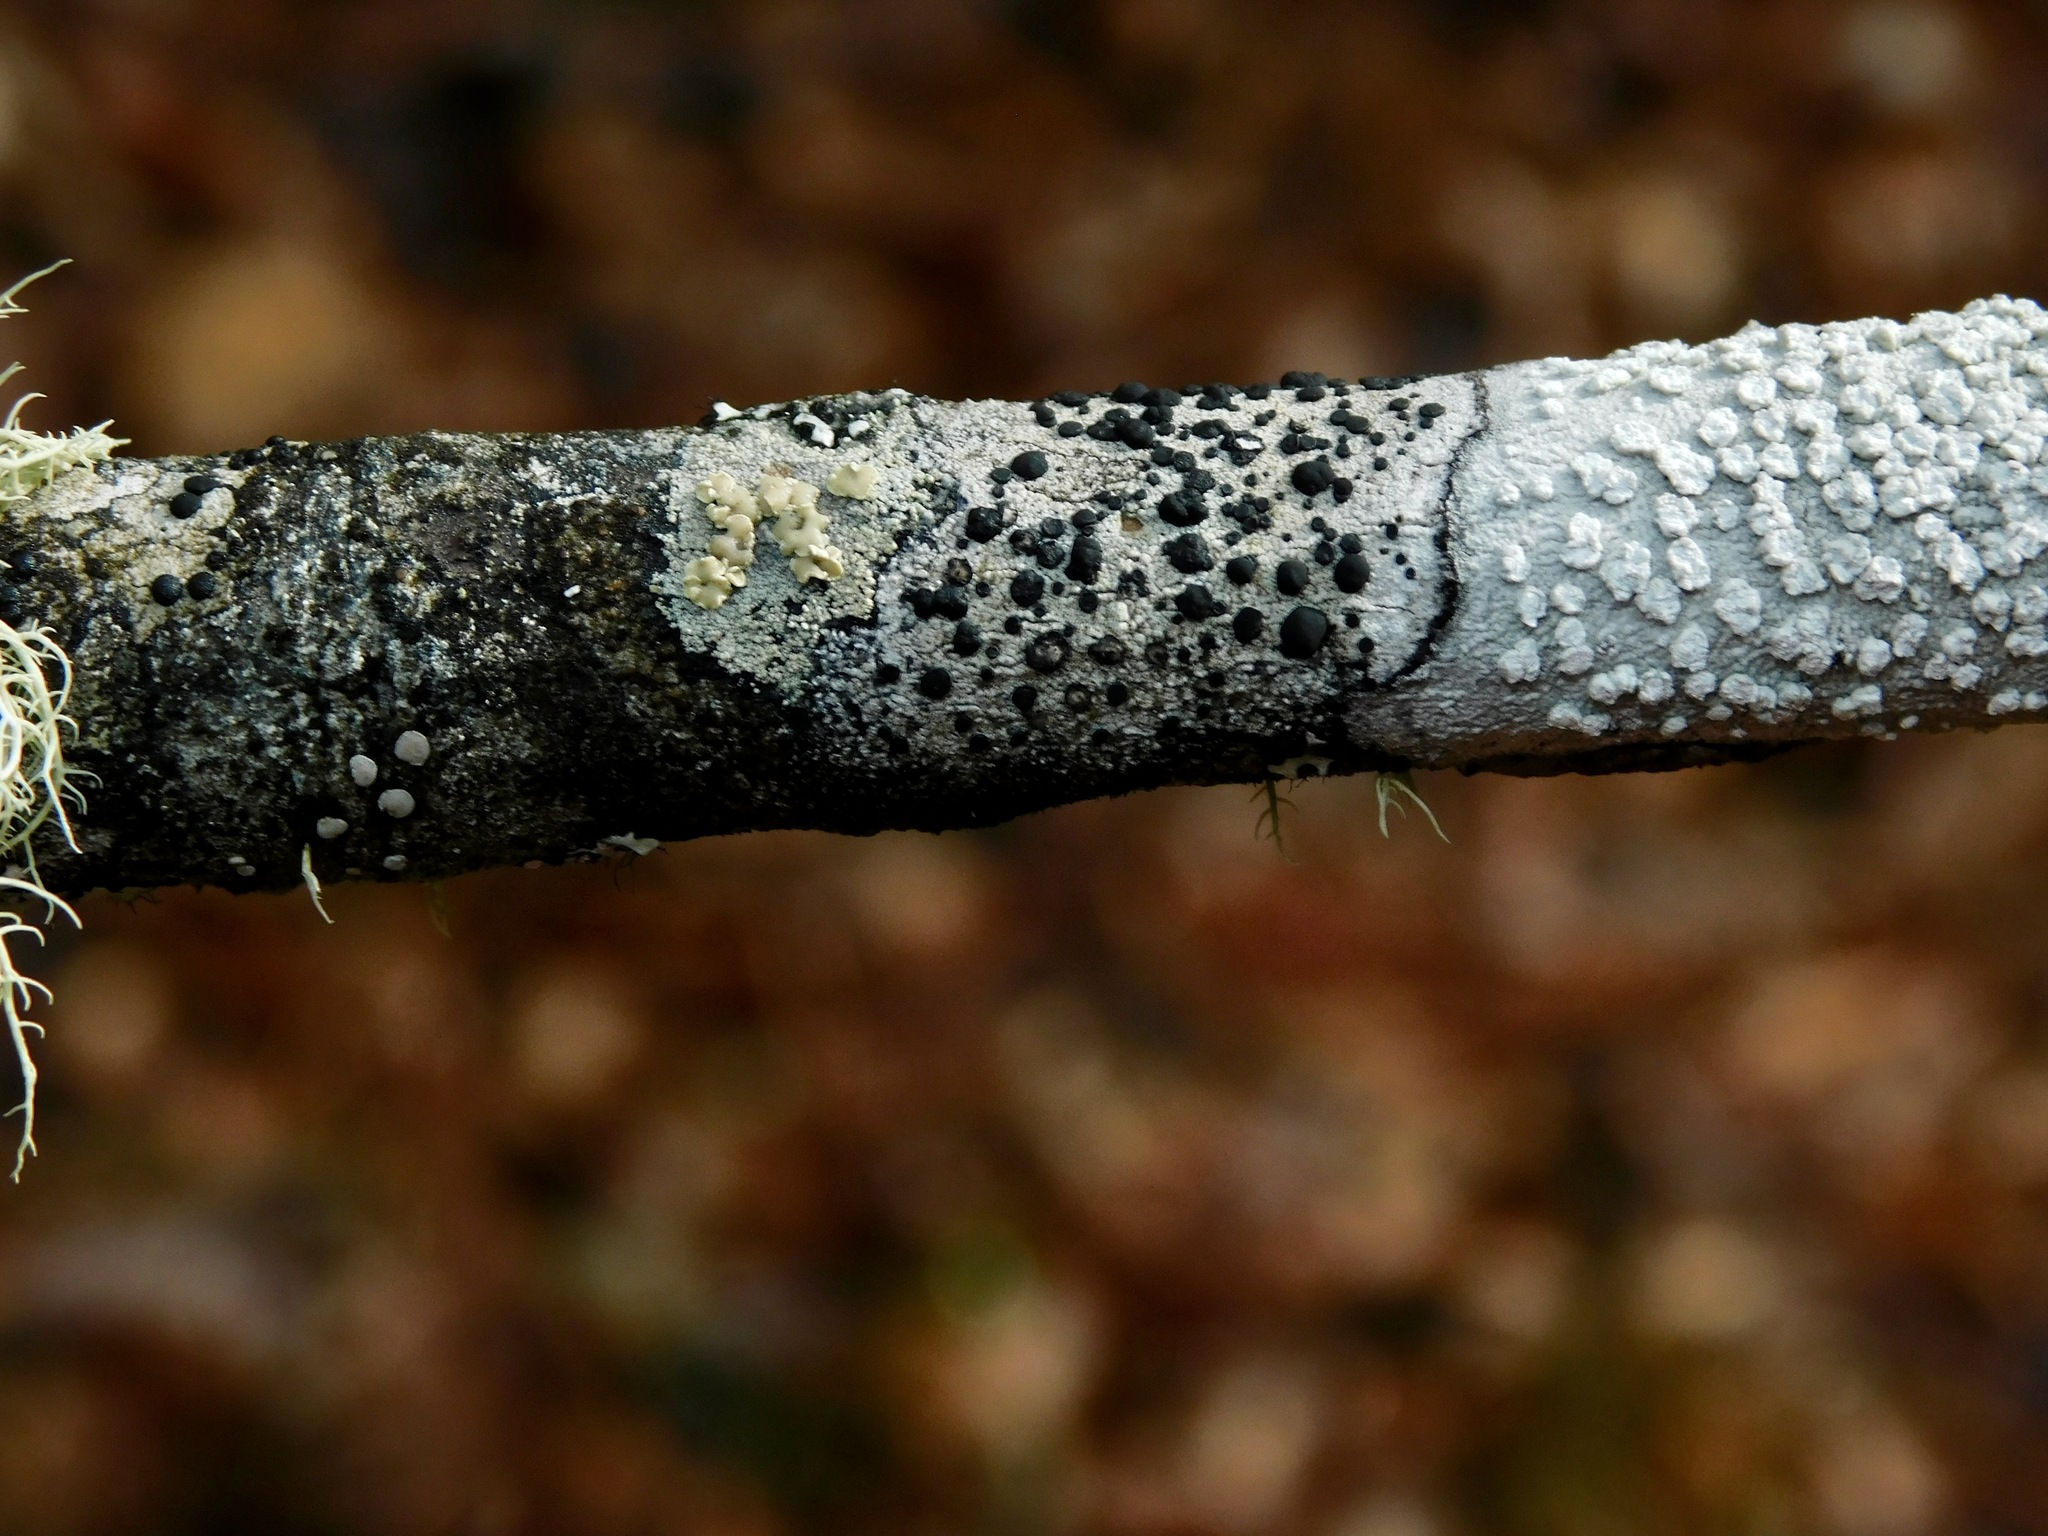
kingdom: Fungi
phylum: Ascomycota
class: Lecanoromycetes
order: Lecanorales
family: Lecanoraceae
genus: Lecanora
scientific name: Lecanora masana
